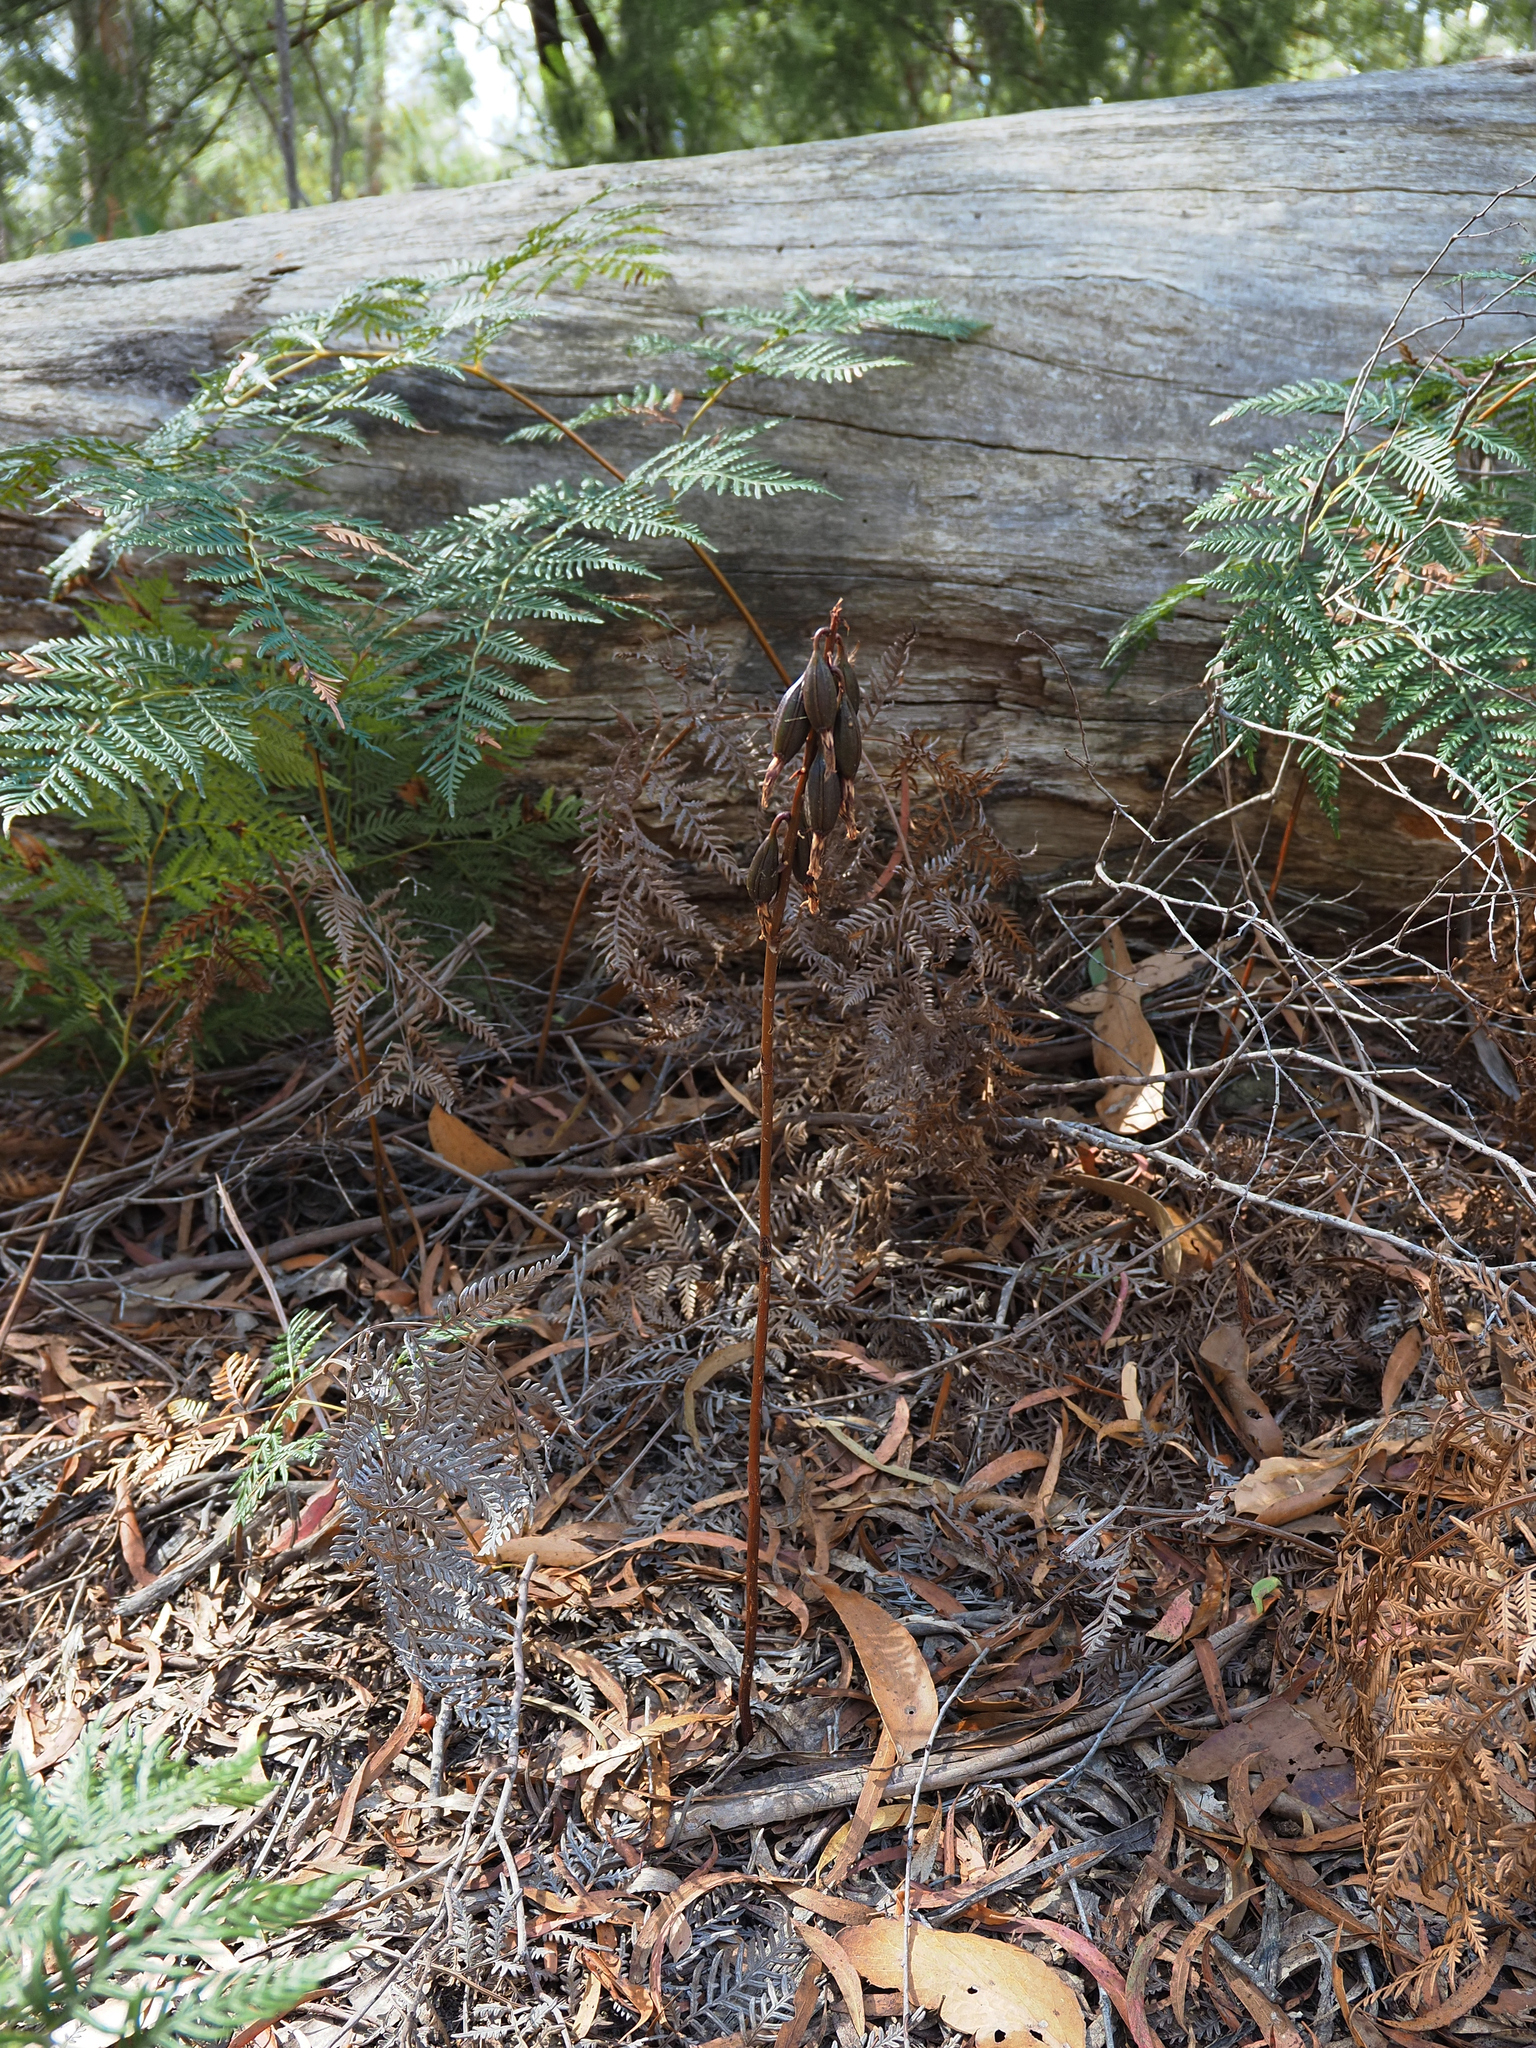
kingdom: Plantae
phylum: Tracheophyta
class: Liliopsida
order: Asparagales
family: Orchidaceae
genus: Dipodium
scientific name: Dipodium roseum
